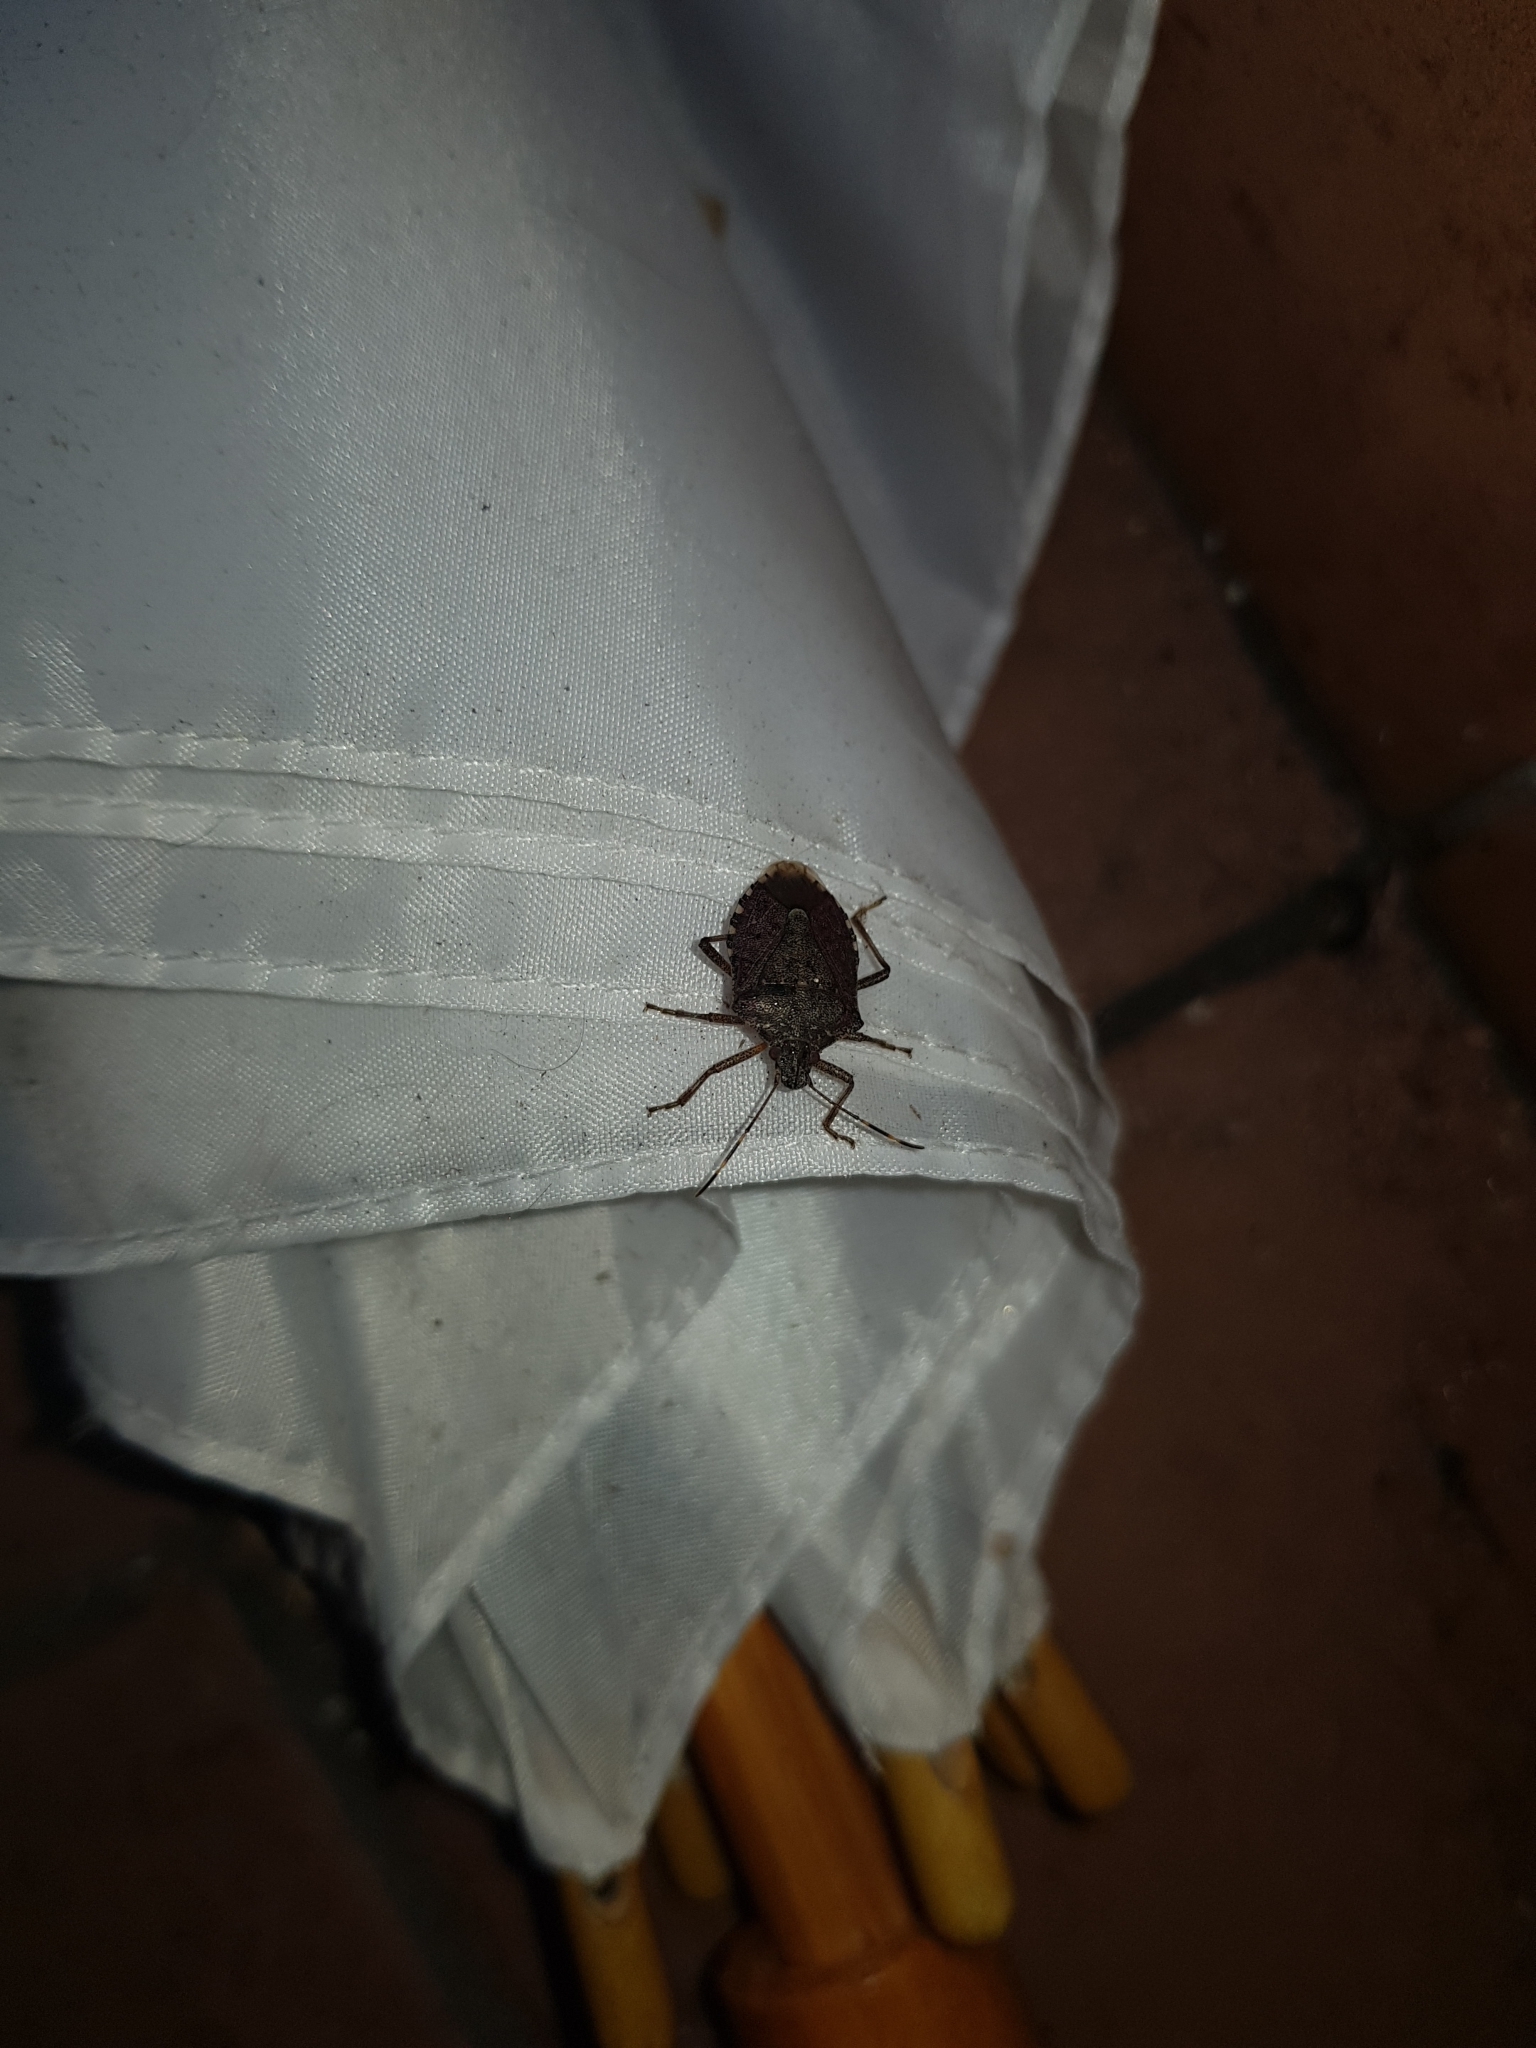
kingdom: Animalia
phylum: Arthropoda
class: Insecta
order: Hemiptera
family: Pentatomidae
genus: Halyomorpha
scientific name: Halyomorpha halys
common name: Brown marmorated stink bug
